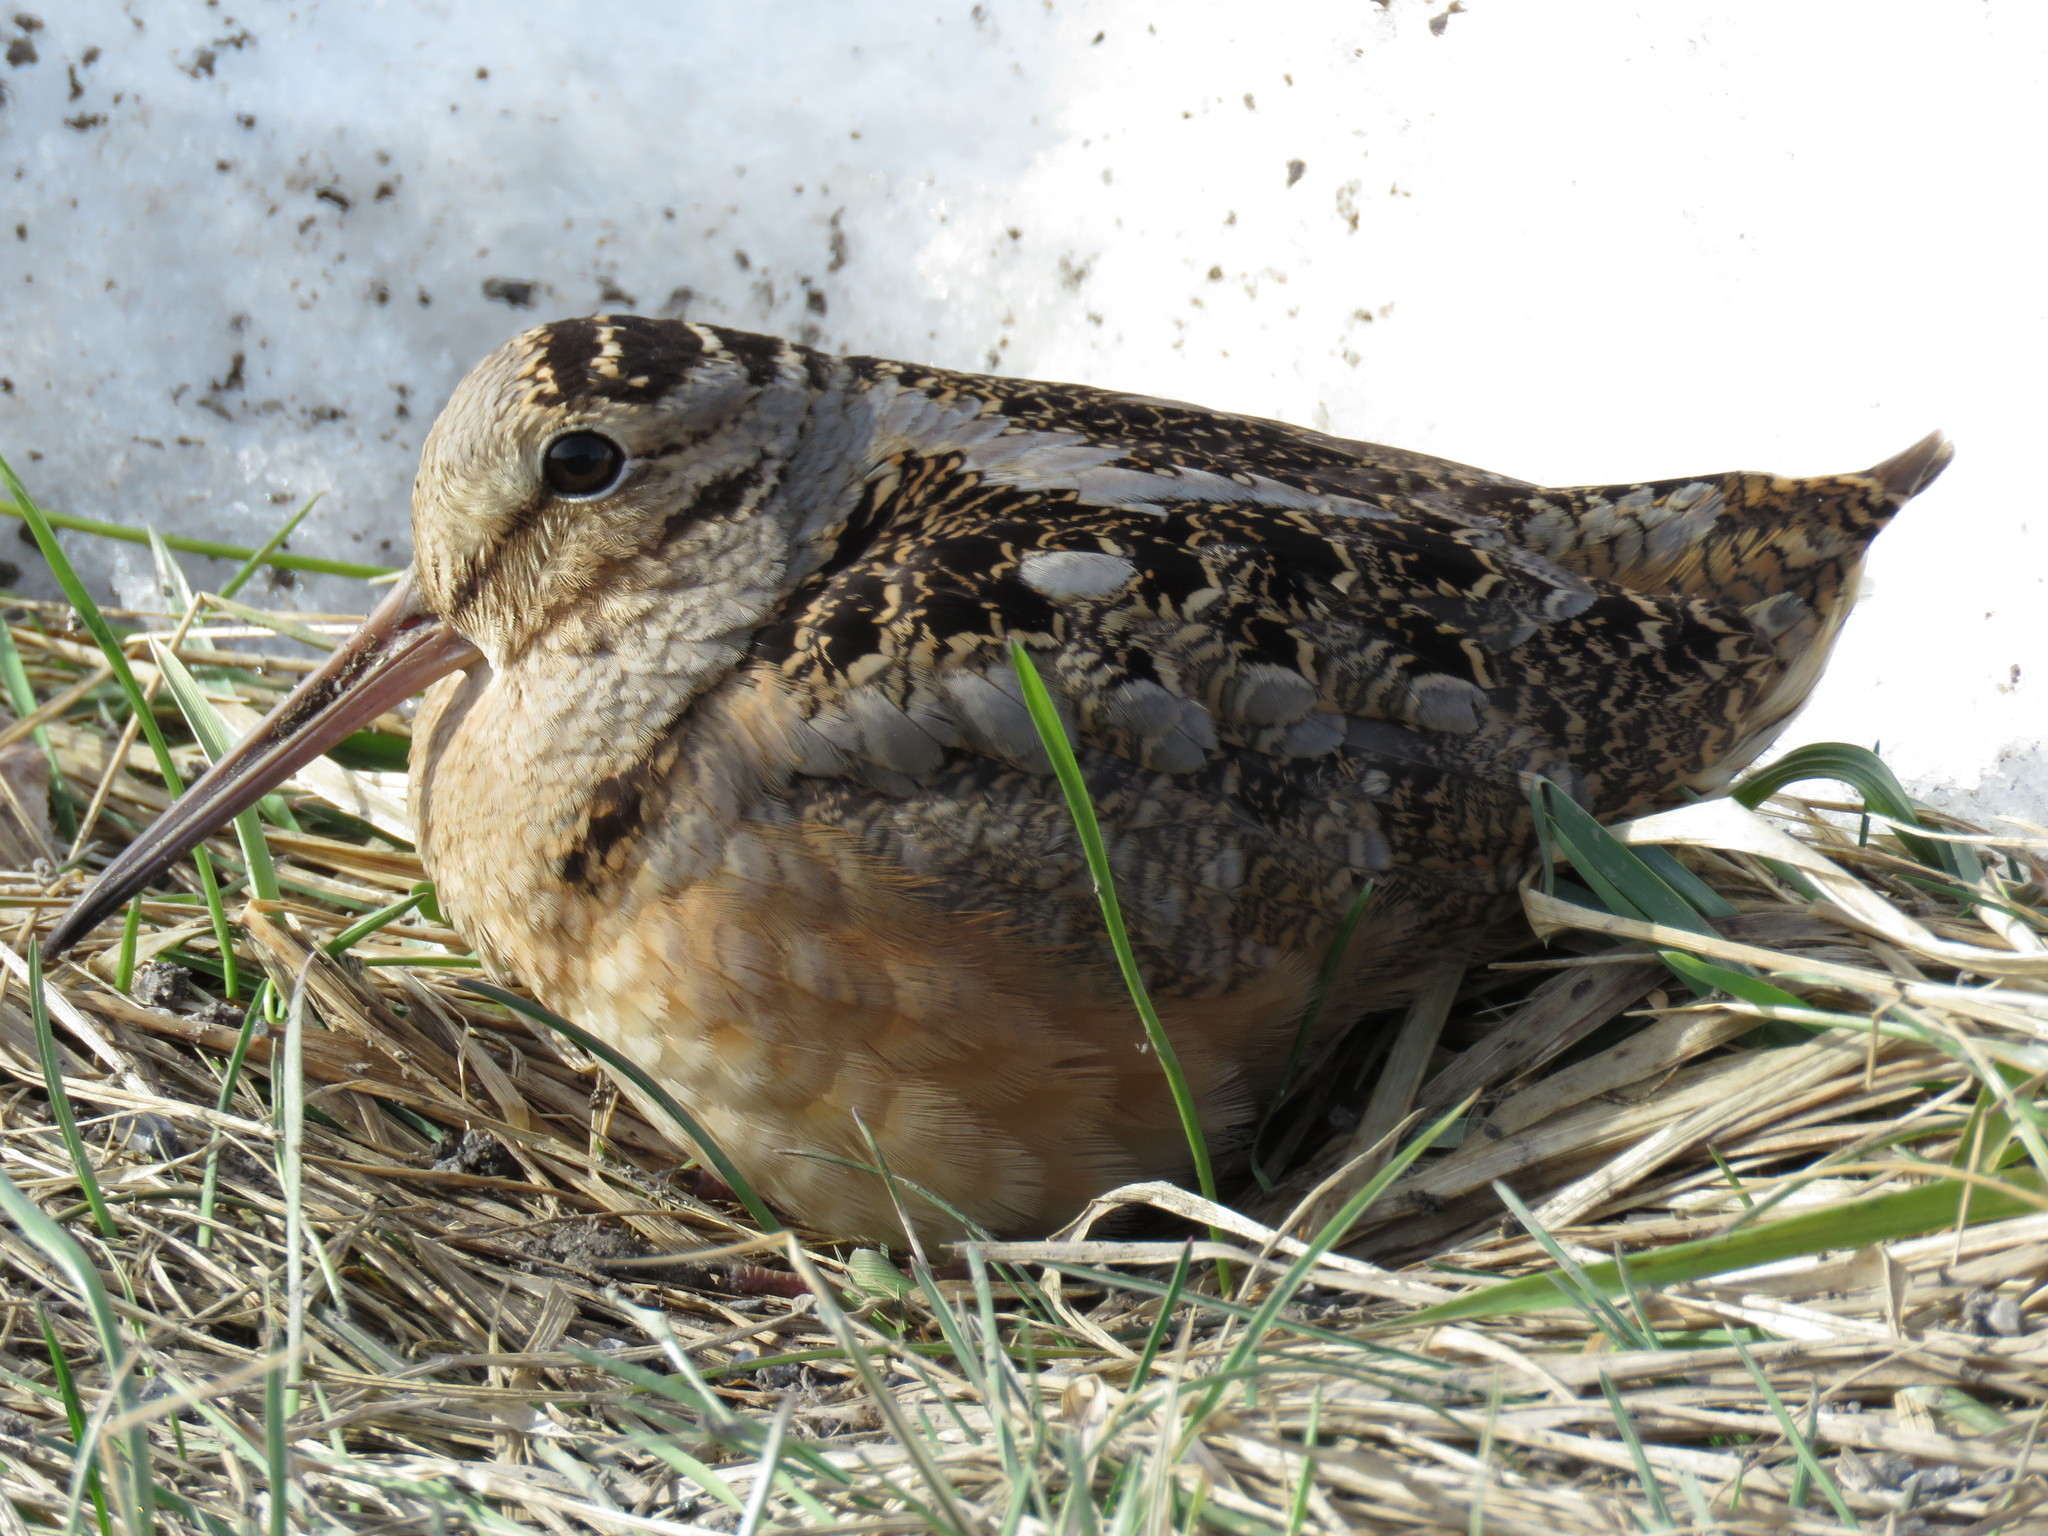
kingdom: Animalia
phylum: Chordata
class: Aves
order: Charadriiformes
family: Scolopacidae
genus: Scolopax
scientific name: Scolopax minor
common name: American woodcock
